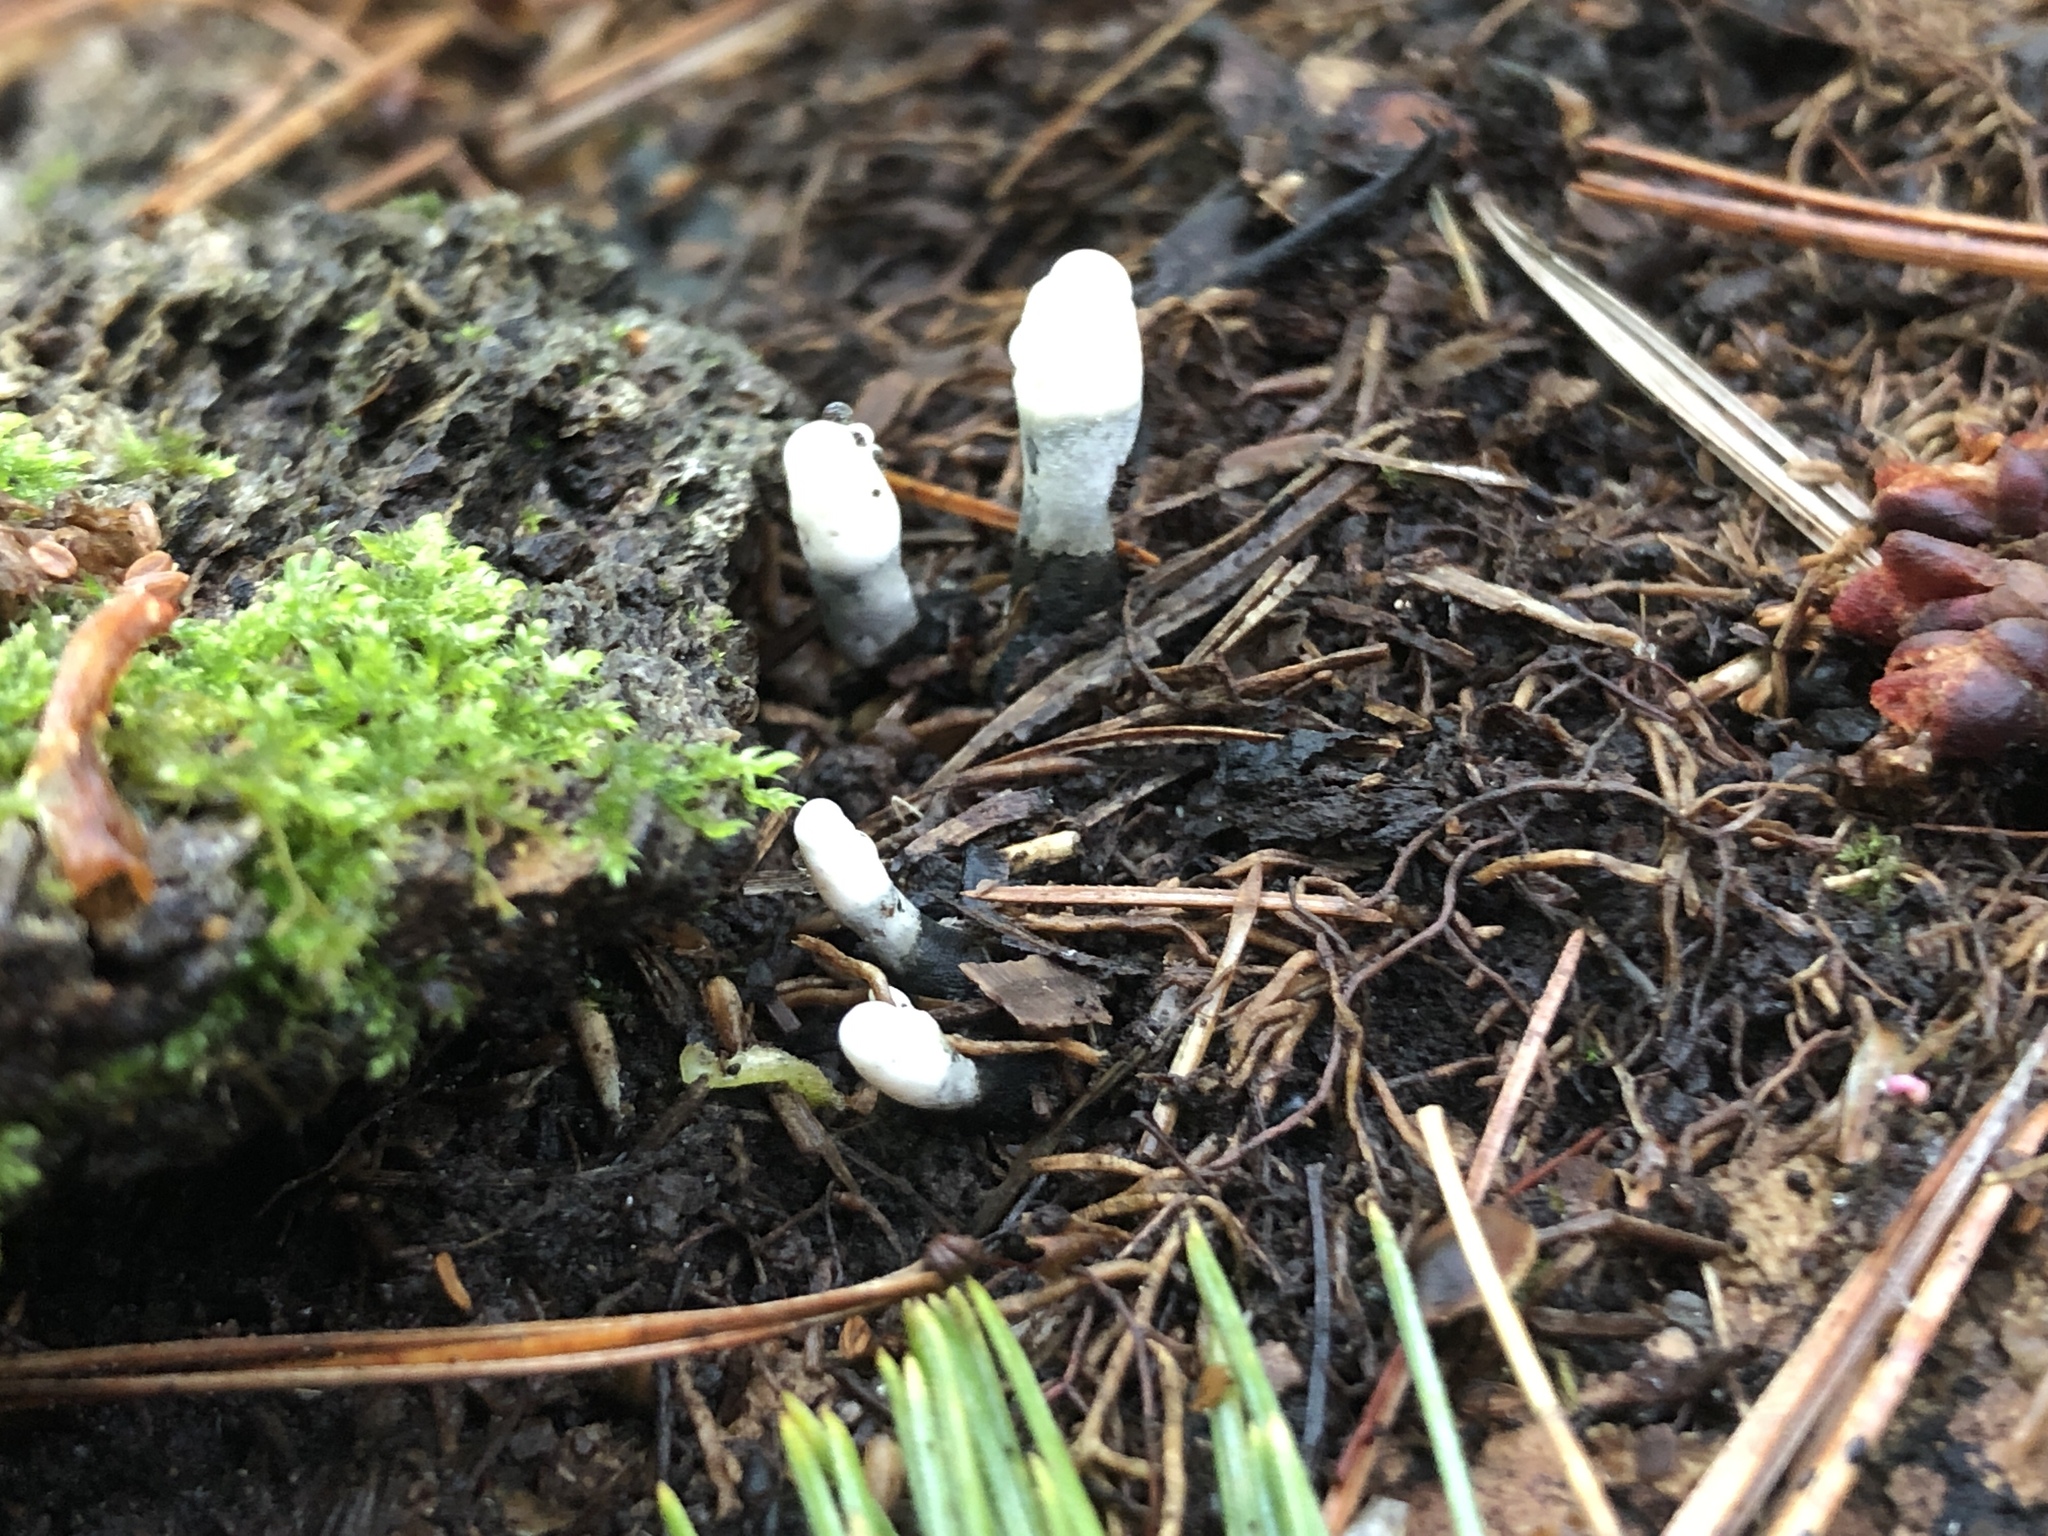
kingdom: Fungi
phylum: Ascomycota
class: Sordariomycetes
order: Xylariales
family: Xylariaceae
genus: Xylaria
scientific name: Xylaria polymorpha
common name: Dead man's fingers
